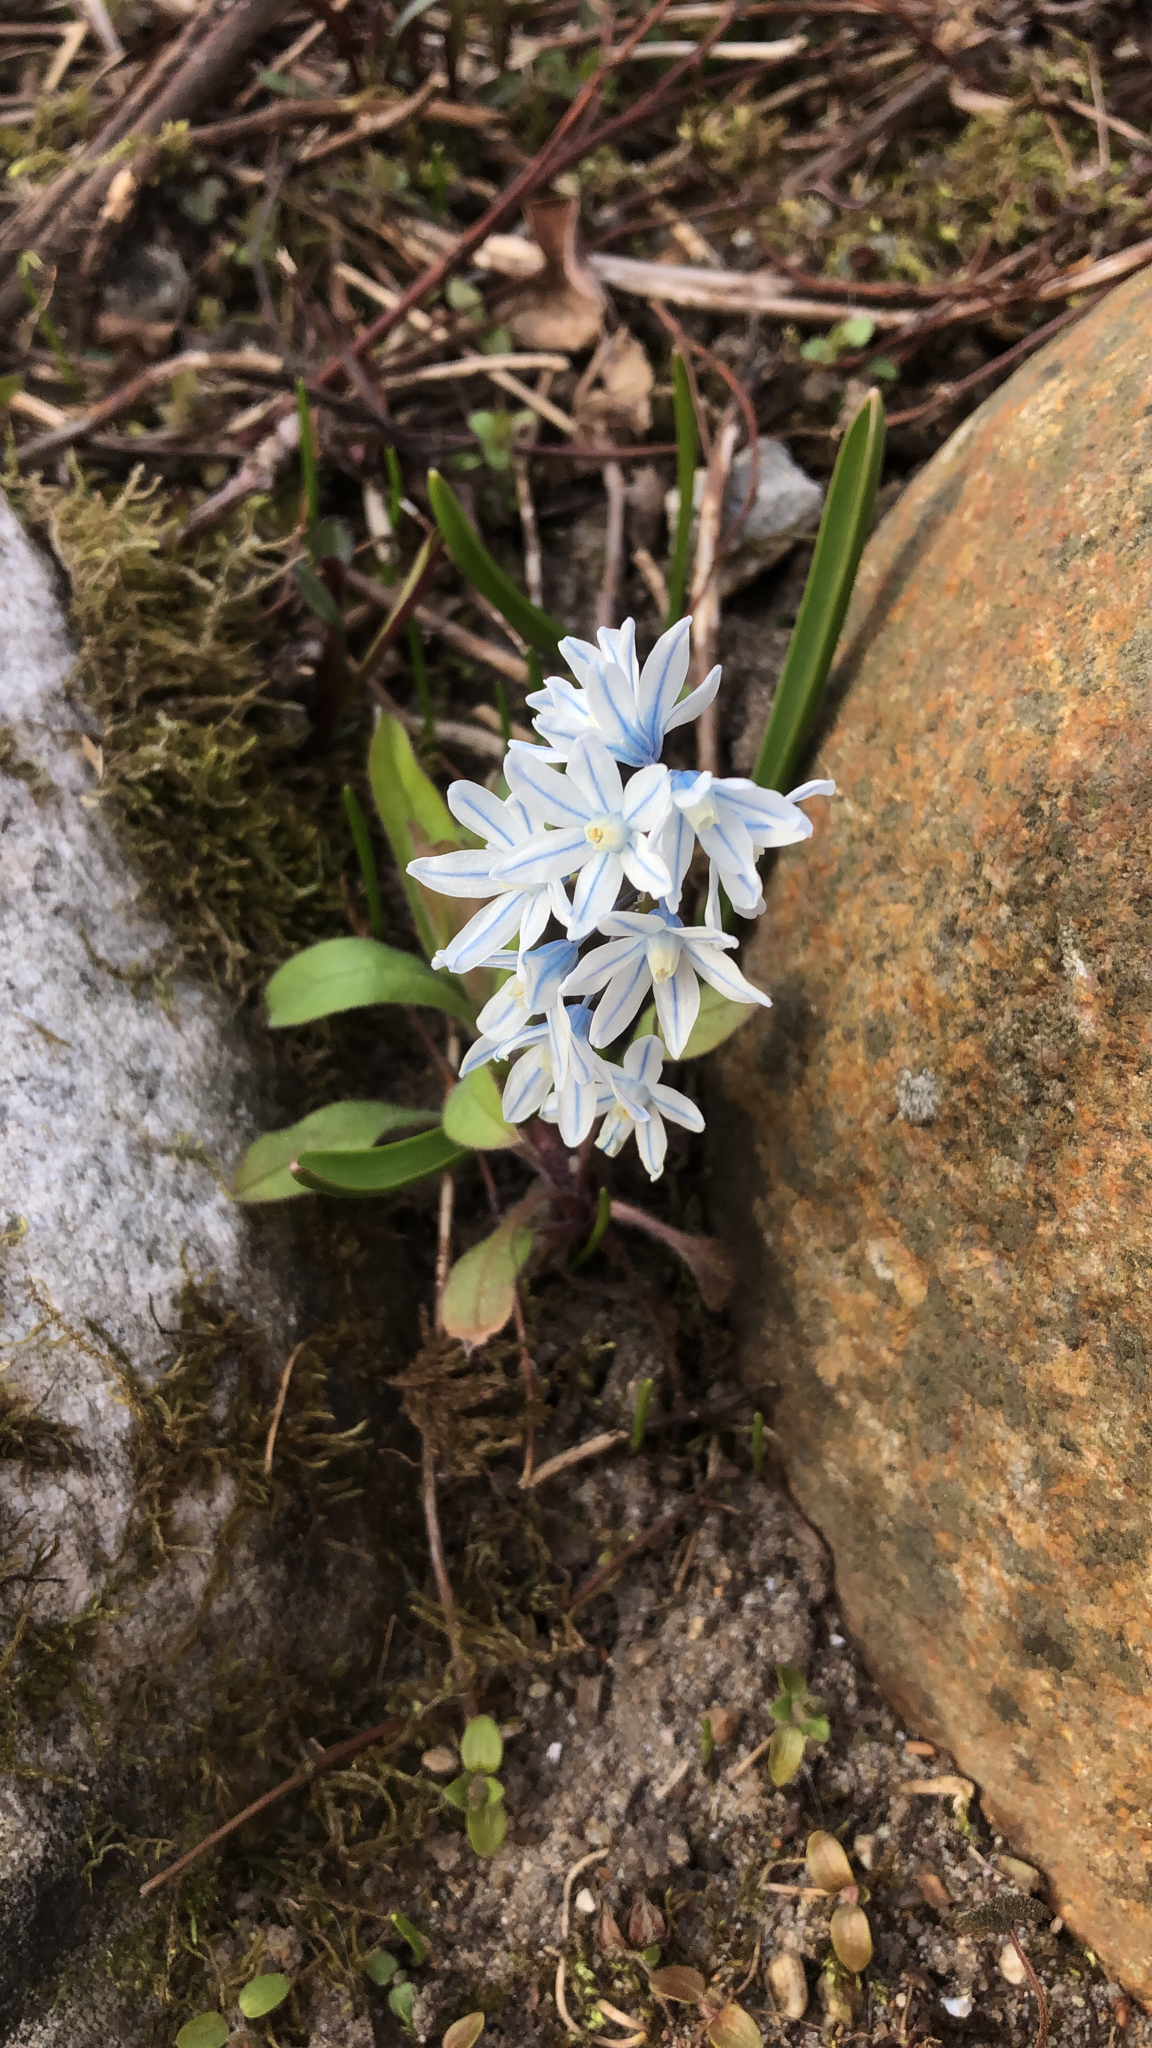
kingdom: Plantae
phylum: Tracheophyta
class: Liliopsida
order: Asparagales
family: Asparagaceae
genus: Puschkinia
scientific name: Puschkinia scilloides
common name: Striped squill
